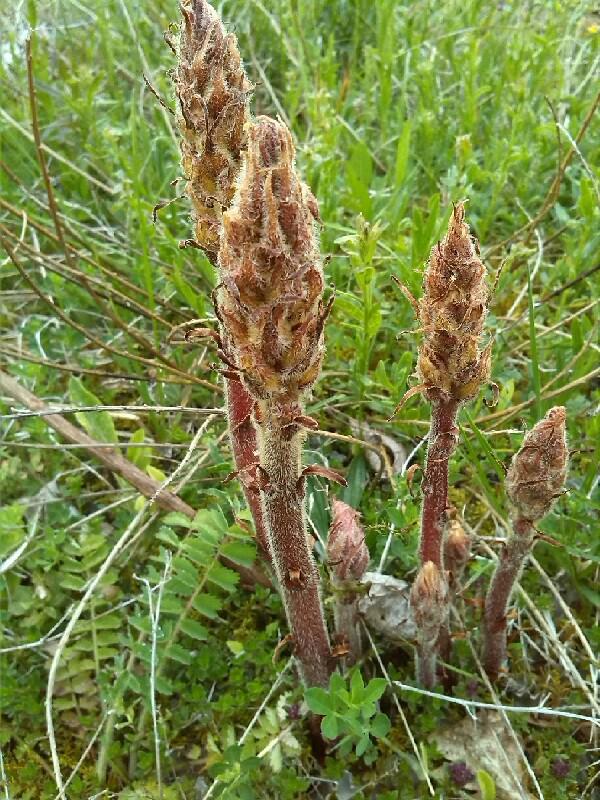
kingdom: Plantae
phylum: Tracheophyta
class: Magnoliopsida
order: Lamiales
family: Orobanchaceae
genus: Orobanche
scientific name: Orobanche alba
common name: Thyme broomrape
